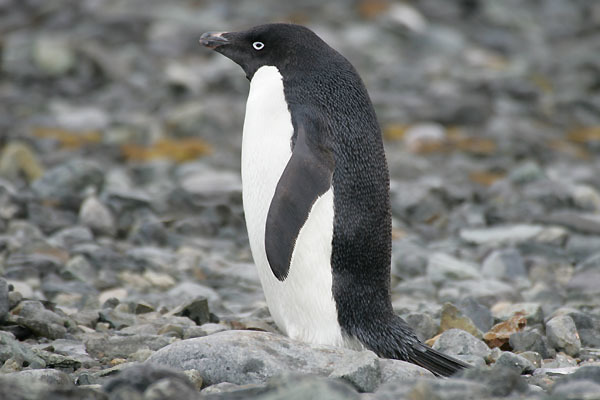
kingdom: Animalia
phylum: Chordata
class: Aves
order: Sphenisciformes
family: Spheniscidae
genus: Pygoscelis
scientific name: Pygoscelis adeliae
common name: Adelie penguin
